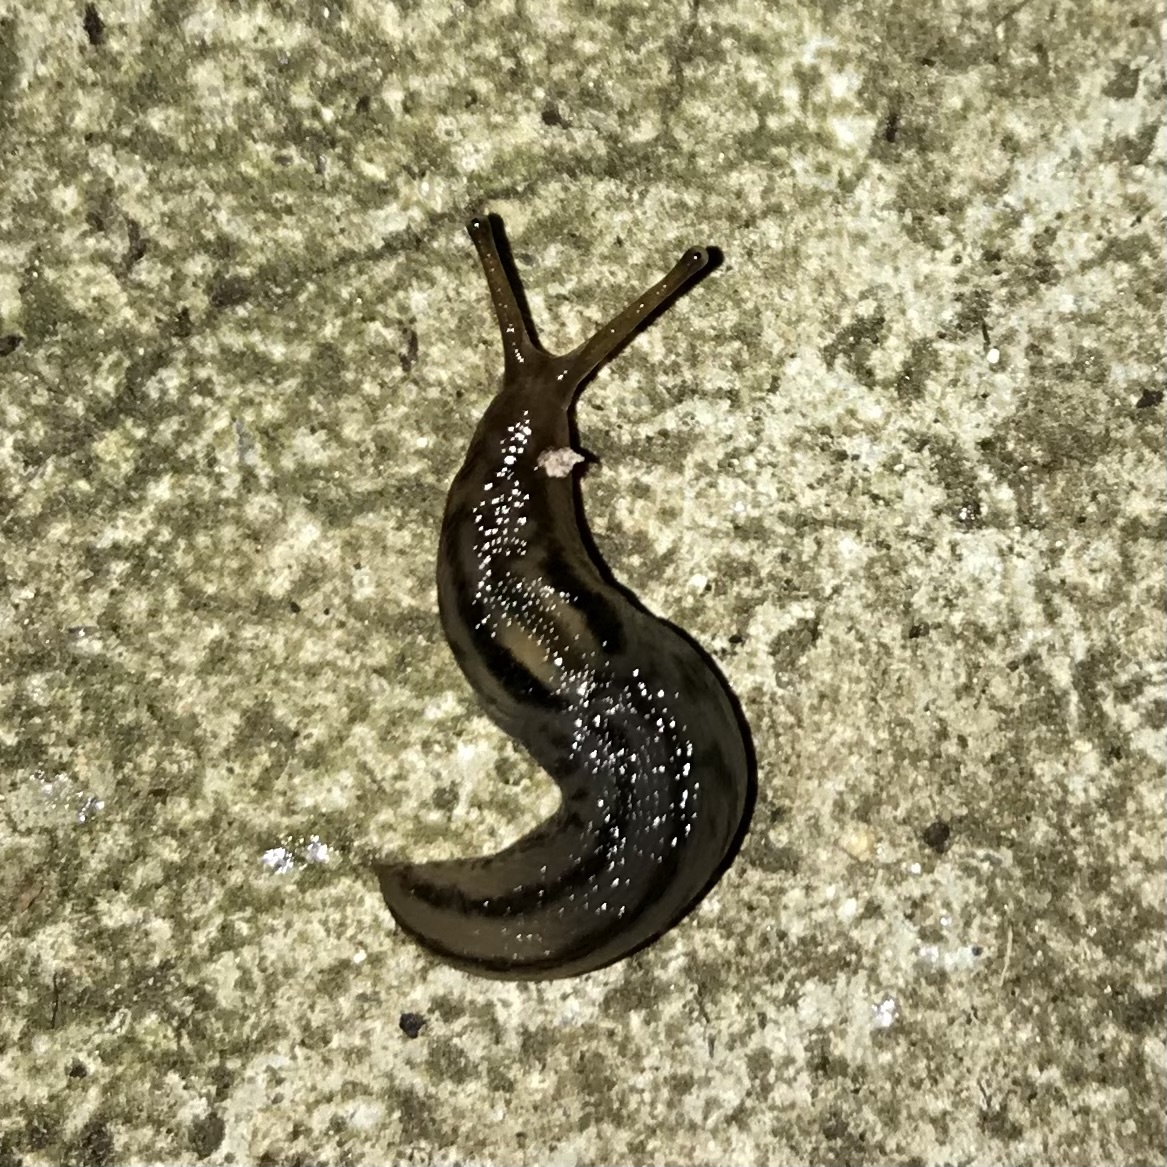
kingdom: Animalia
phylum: Mollusca
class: Gastropoda
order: Stylommatophora
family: Limacidae
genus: Ambigolimax
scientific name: Ambigolimax
